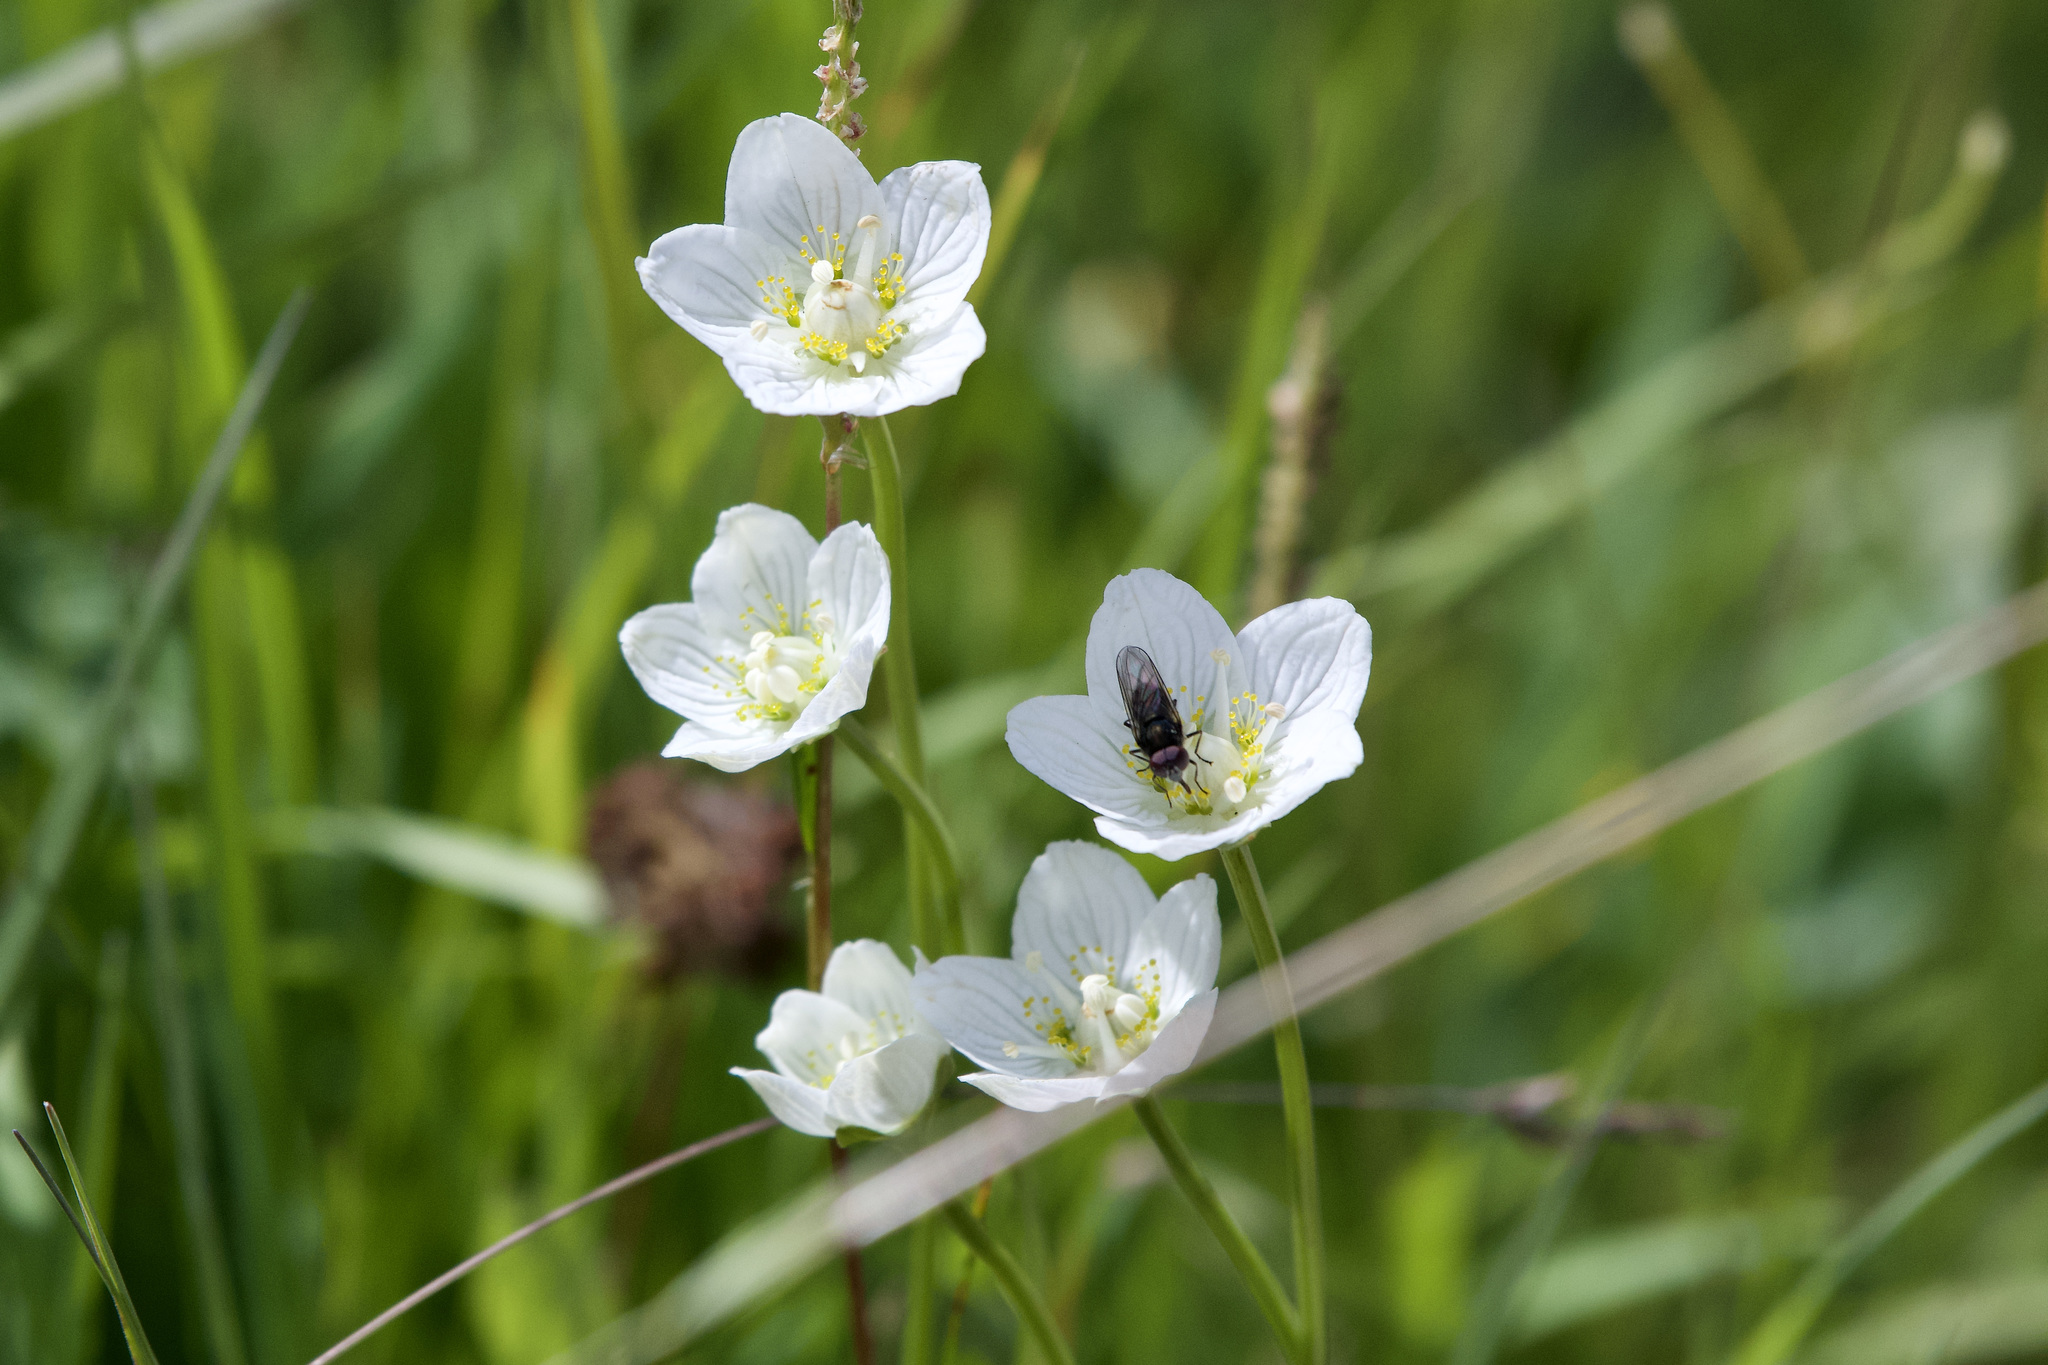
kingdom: Plantae
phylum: Tracheophyta
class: Magnoliopsida
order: Celastrales
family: Parnassiaceae
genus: Parnassia
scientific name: Parnassia palustris
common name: Grass-of-parnassus
